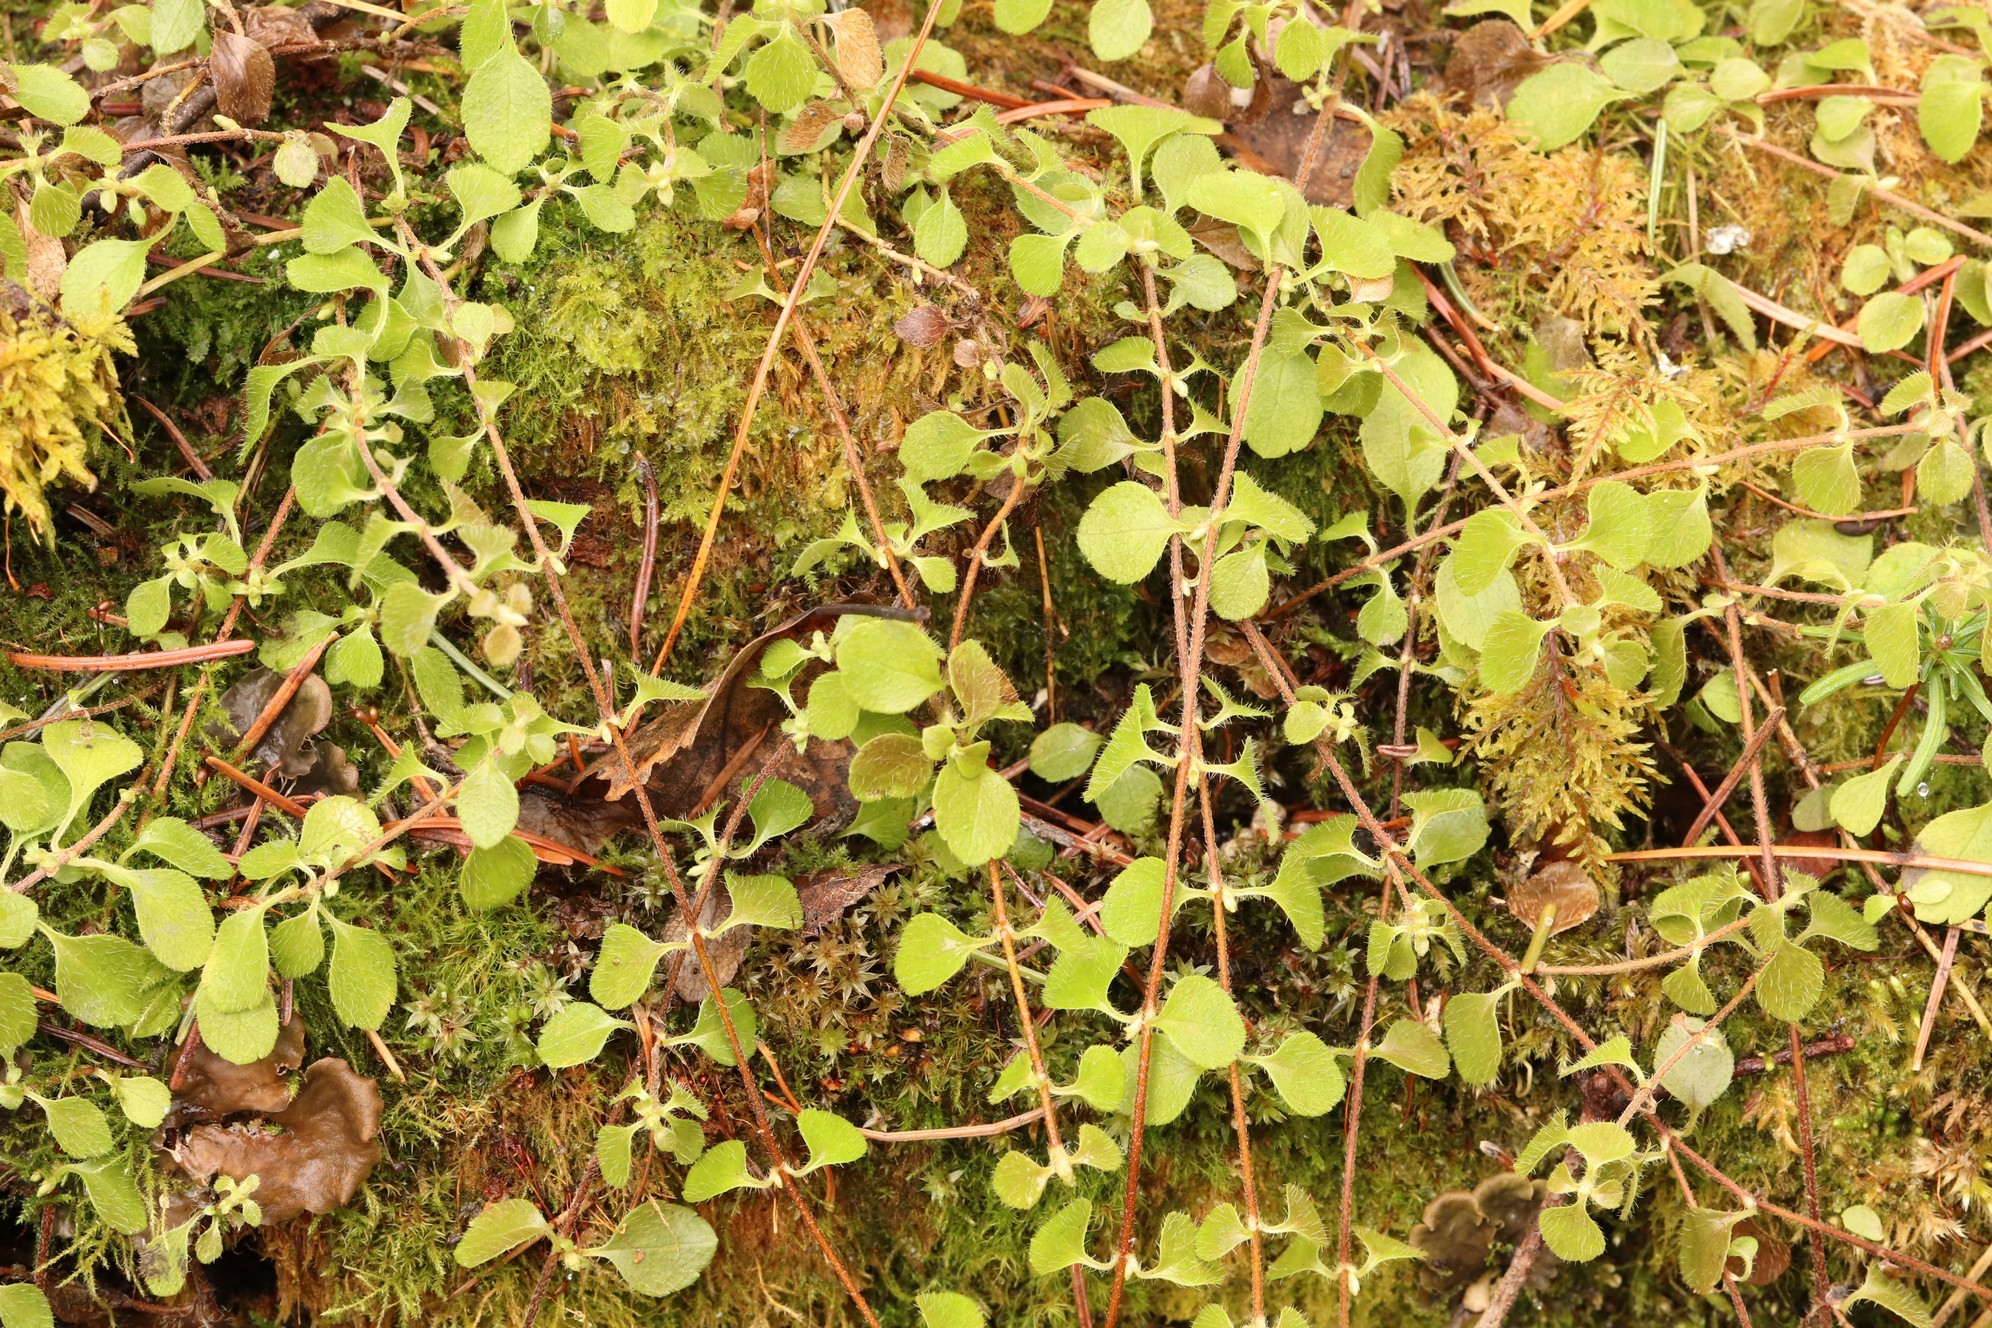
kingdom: Plantae
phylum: Tracheophyta
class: Magnoliopsida
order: Dipsacales
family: Caprifoliaceae
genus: Linnaea
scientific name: Linnaea borealis
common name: Twinflower
